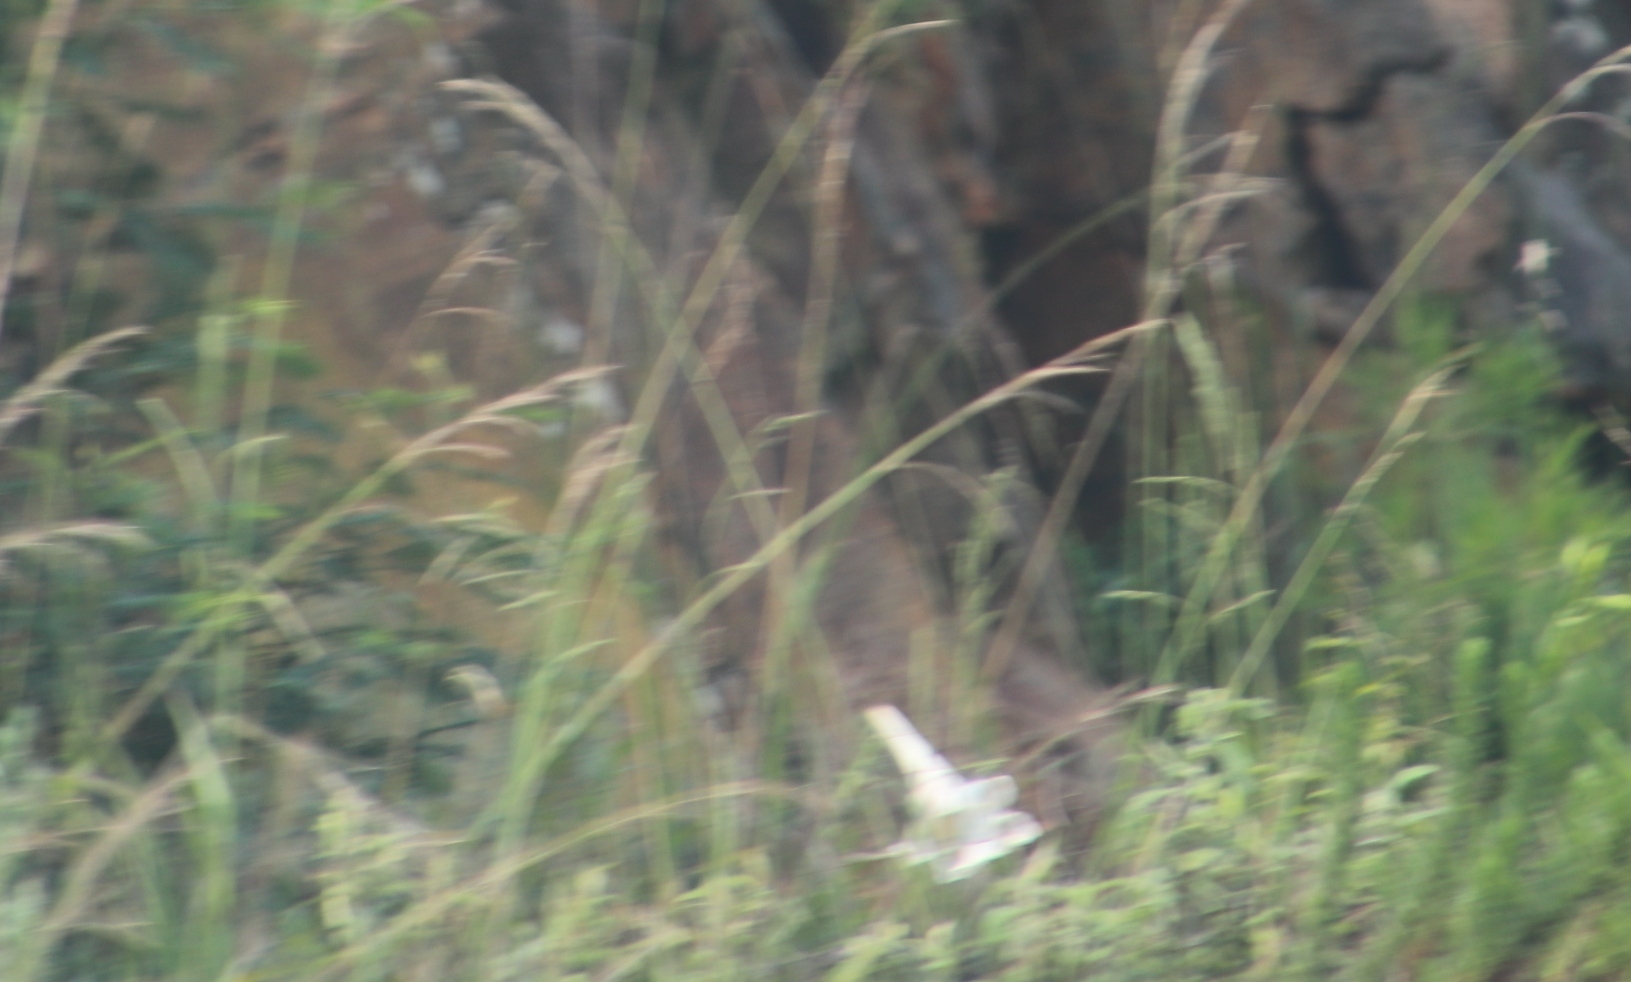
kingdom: Plantae
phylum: Tracheophyta
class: Liliopsida
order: Liliales
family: Liliaceae
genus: Lilium
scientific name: Lilium formosanum
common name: Formosa lily
